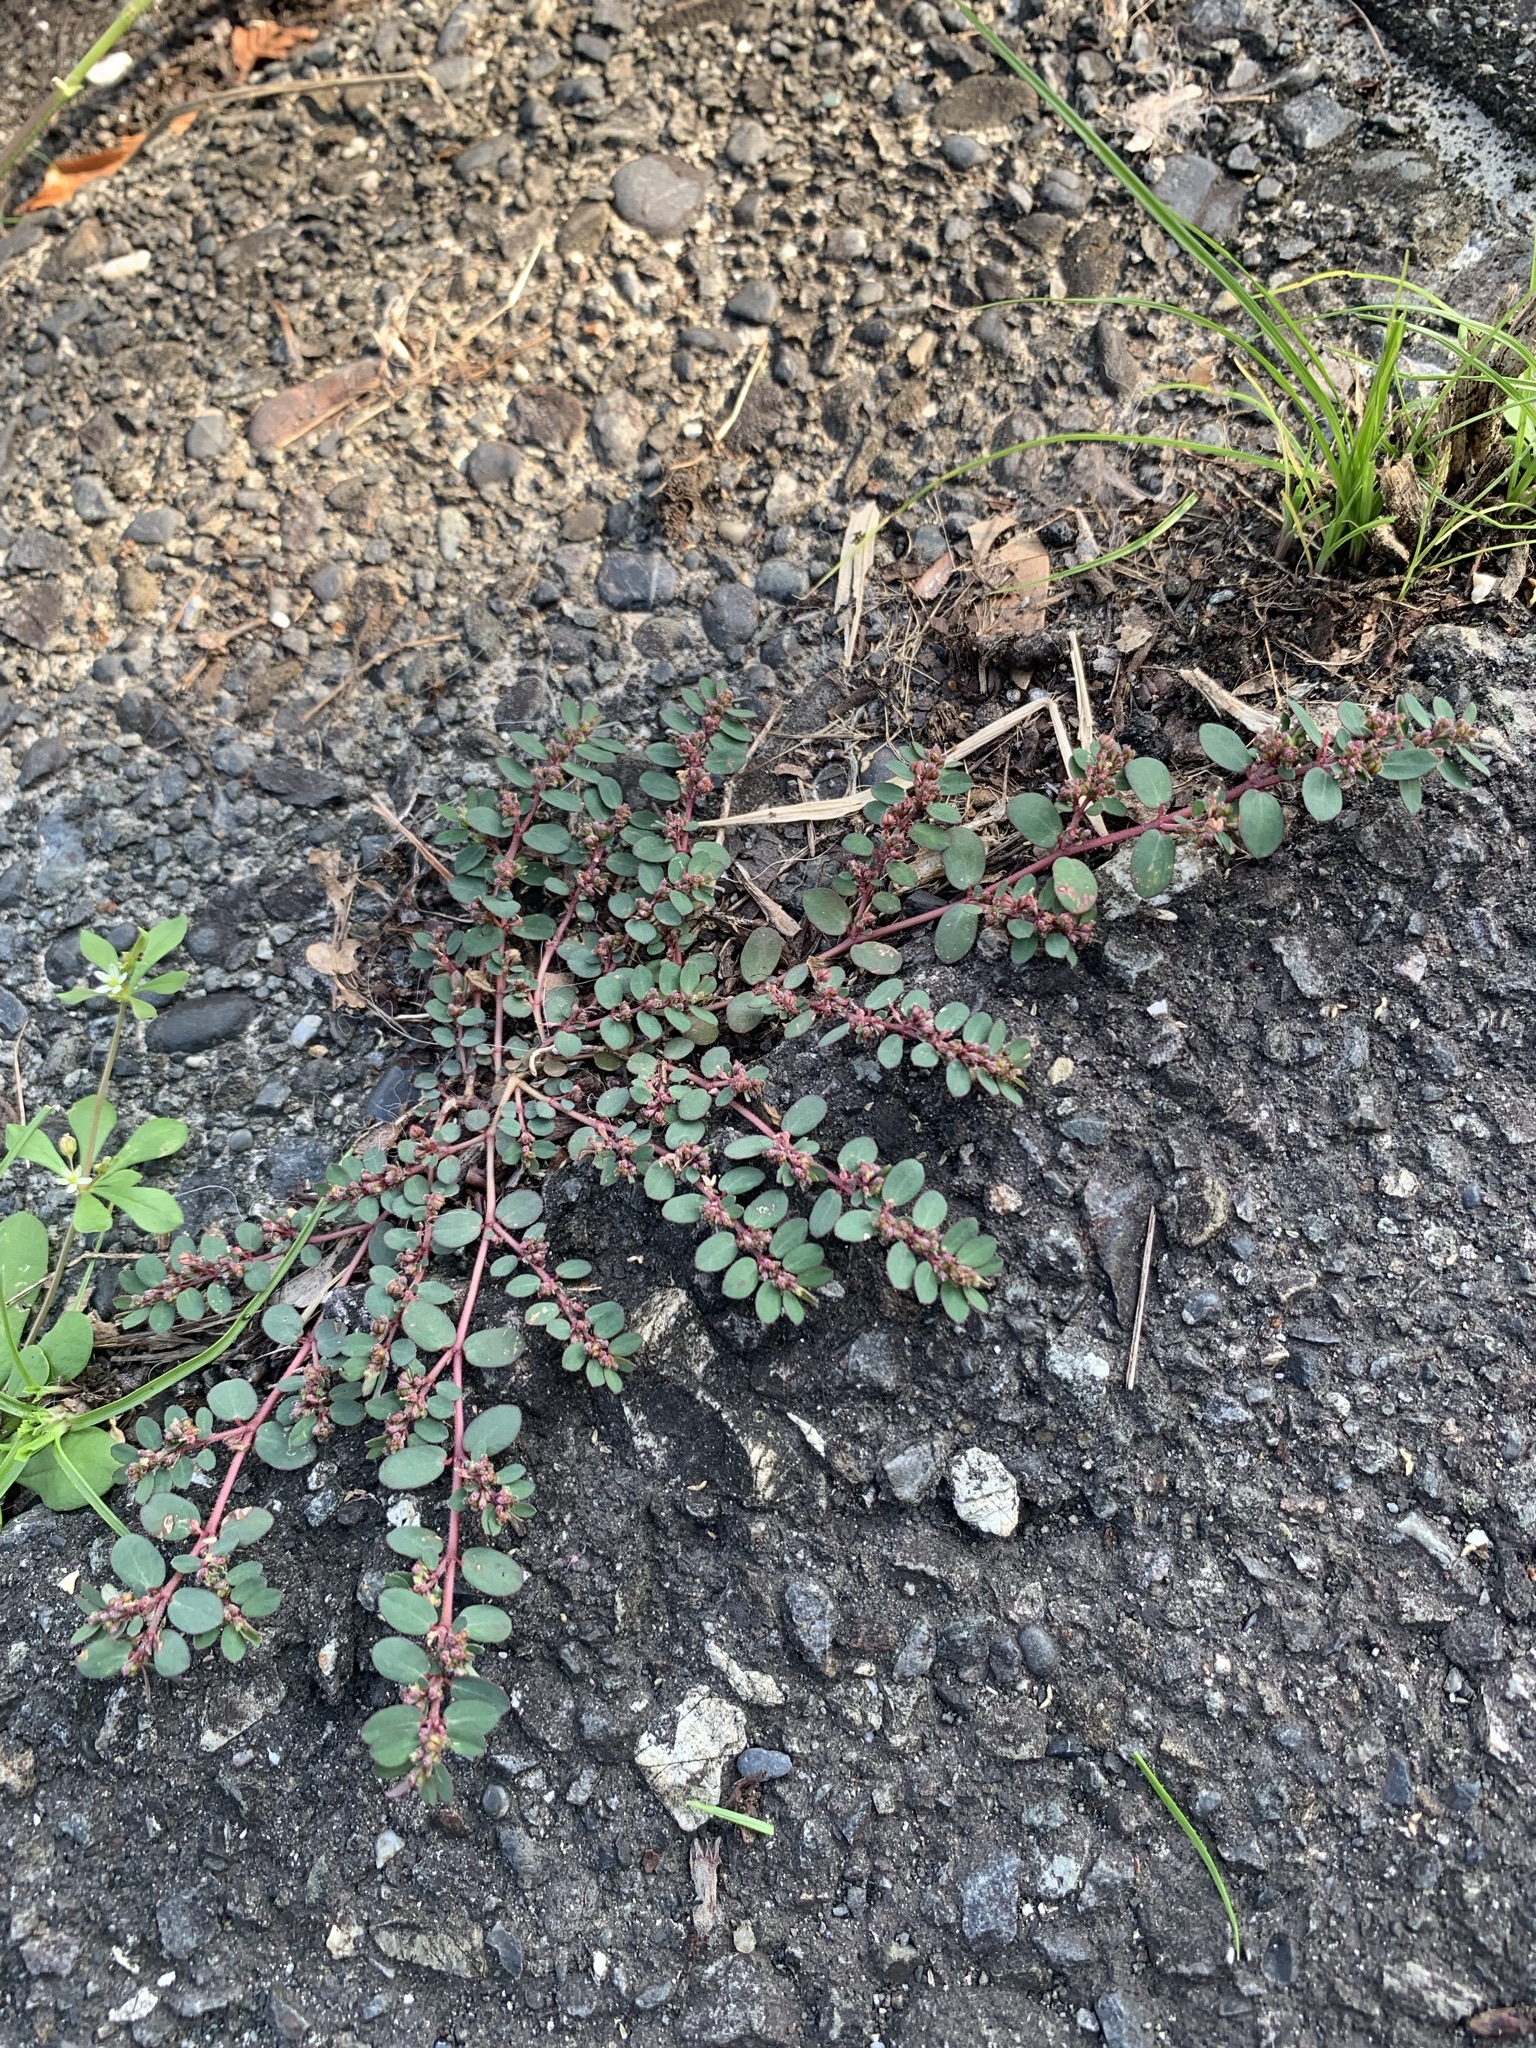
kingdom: Plantae
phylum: Tracheophyta
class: Magnoliopsida
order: Malpighiales
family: Euphorbiaceae
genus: Euphorbia
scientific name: Euphorbia prostrata
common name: Prostrate sandmat
